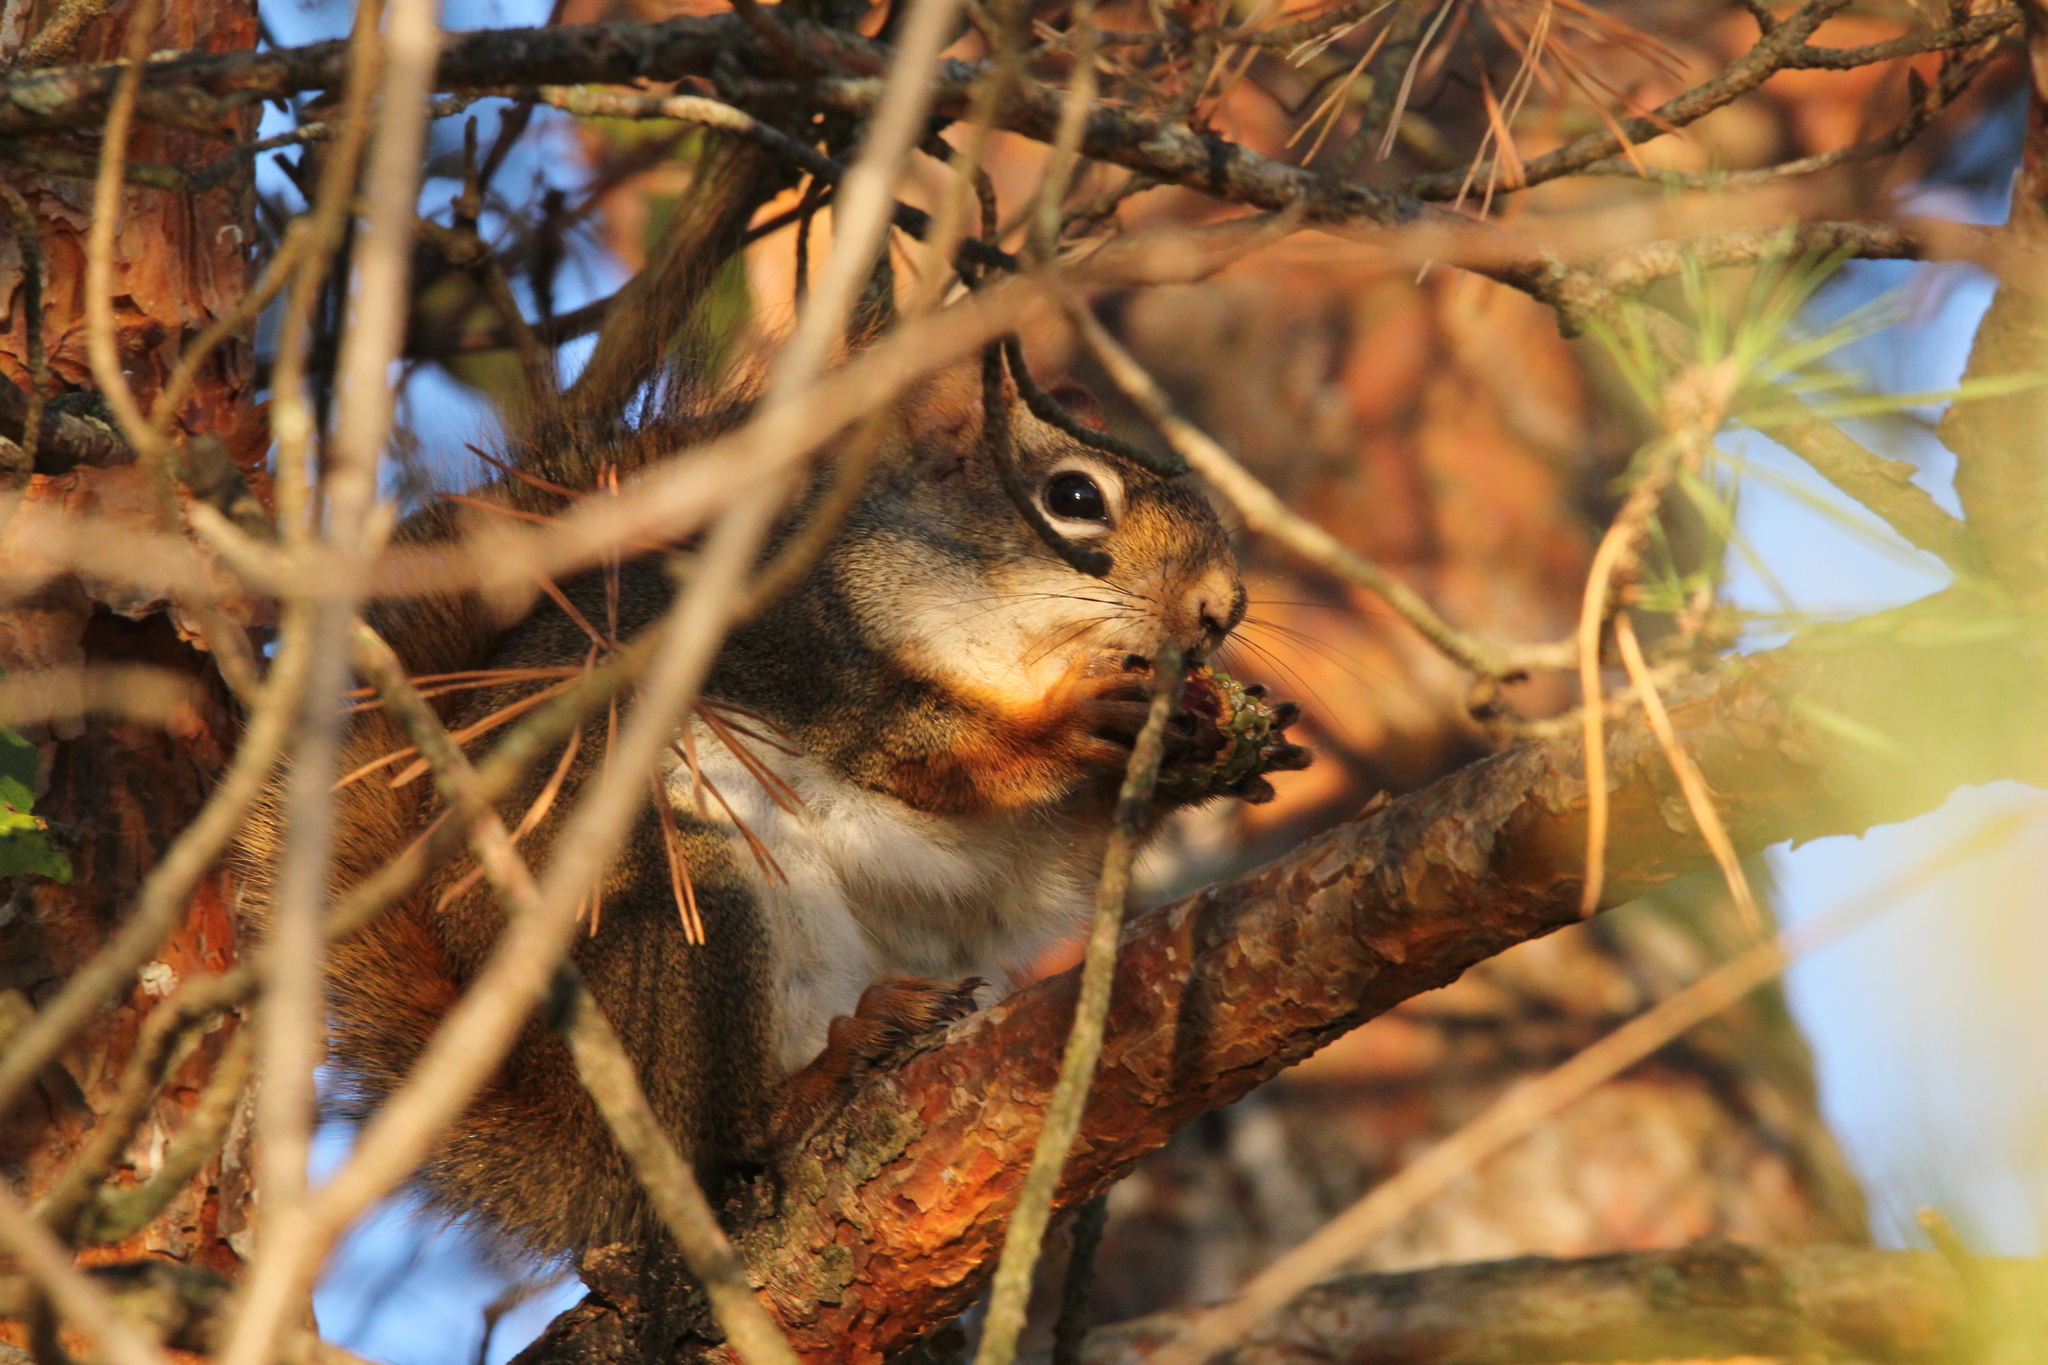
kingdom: Animalia
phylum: Chordata
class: Mammalia
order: Rodentia
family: Sciuridae
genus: Tamiasciurus
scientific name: Tamiasciurus hudsonicus
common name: Red squirrel
